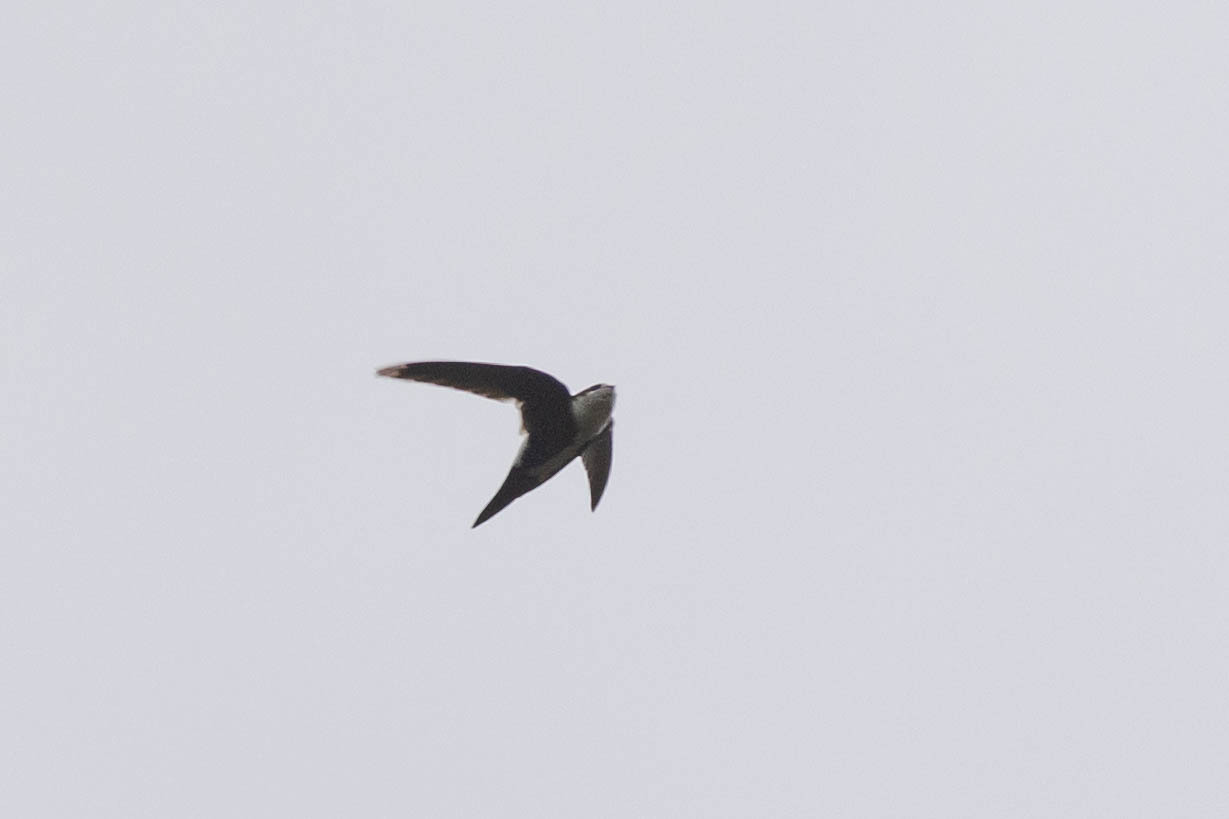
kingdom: Animalia
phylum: Chordata
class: Aves
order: Apodiformes
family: Apodidae
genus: Aeronautes
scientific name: Aeronautes saxatalis
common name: White-throated swift
